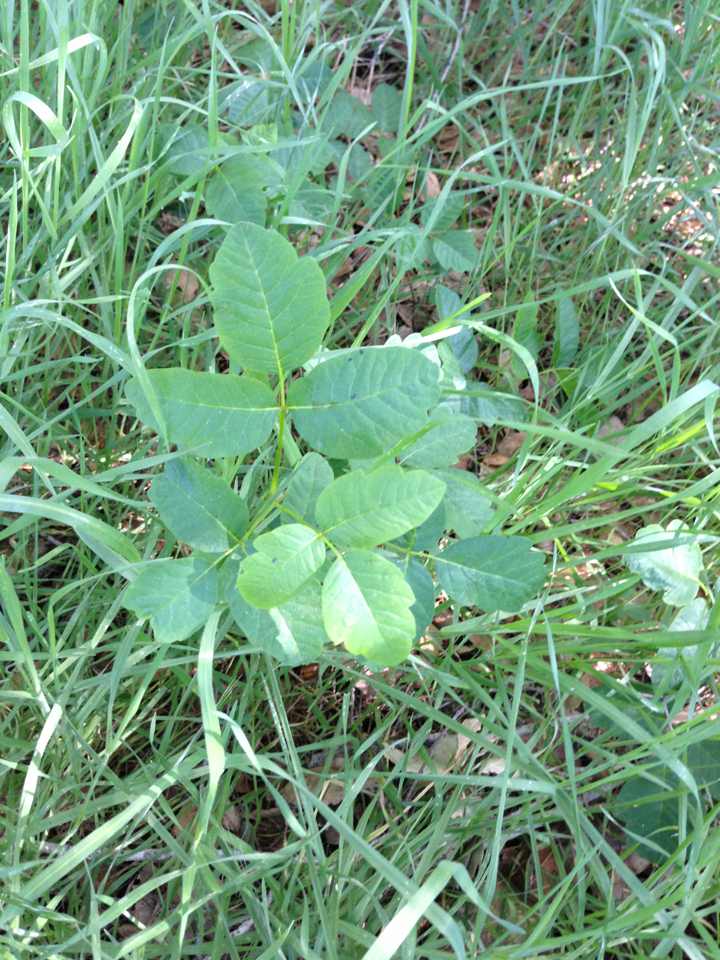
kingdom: Plantae
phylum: Tracheophyta
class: Magnoliopsida
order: Sapindales
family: Anacardiaceae
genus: Toxicodendron
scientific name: Toxicodendron diversilobum
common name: Pacific poison-oak
